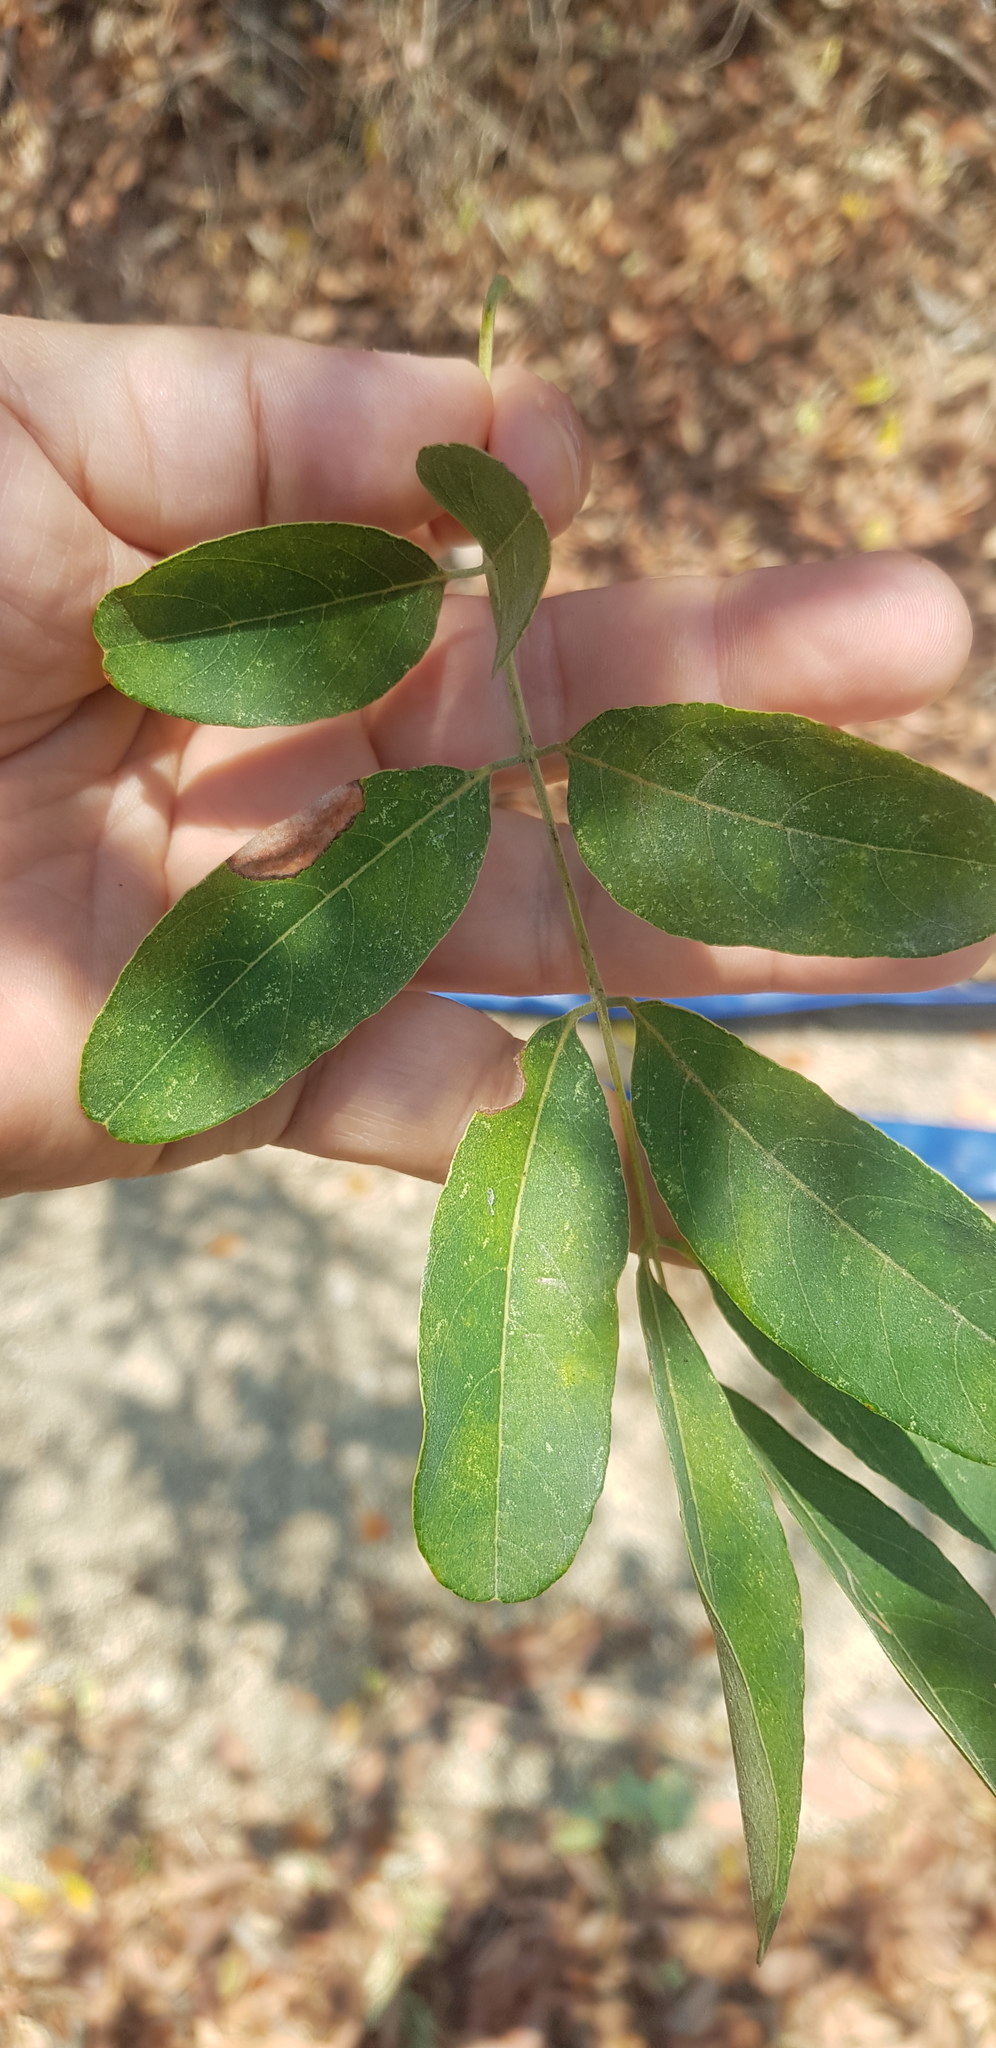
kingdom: Plantae
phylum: Tracheophyta
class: Magnoliopsida
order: Fabales
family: Fabaceae
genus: Pterocarpus
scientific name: Pterocarpus acapulcensis
